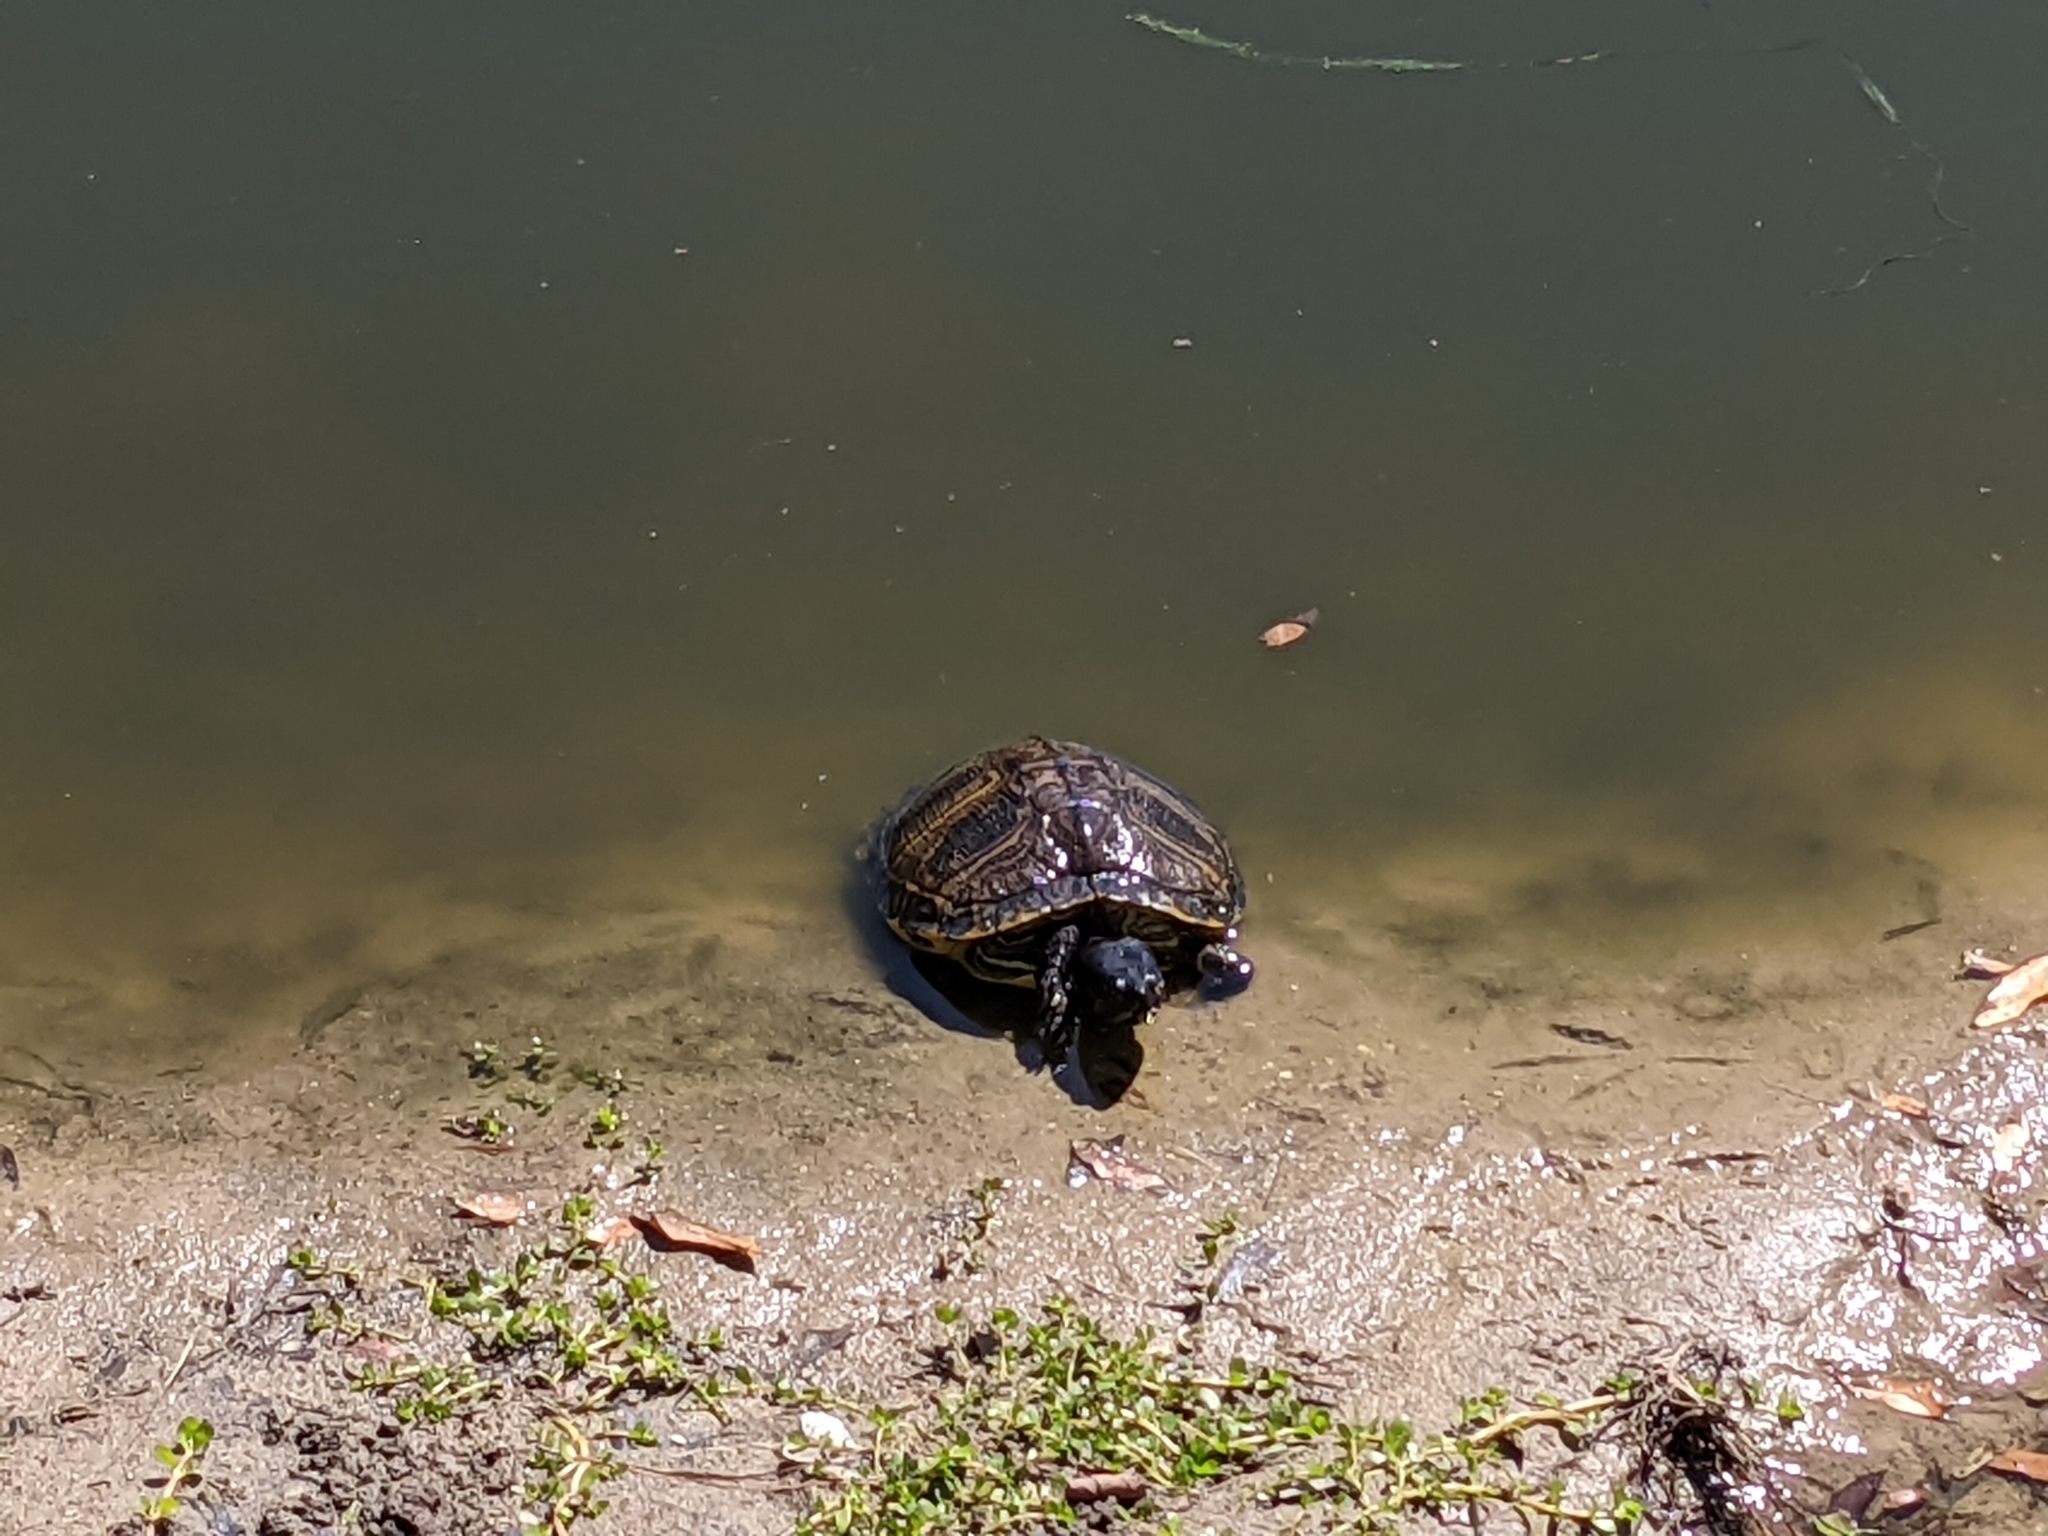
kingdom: Animalia
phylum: Chordata
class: Testudines
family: Emydidae
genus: Trachemys
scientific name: Trachemys scripta
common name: Slider
